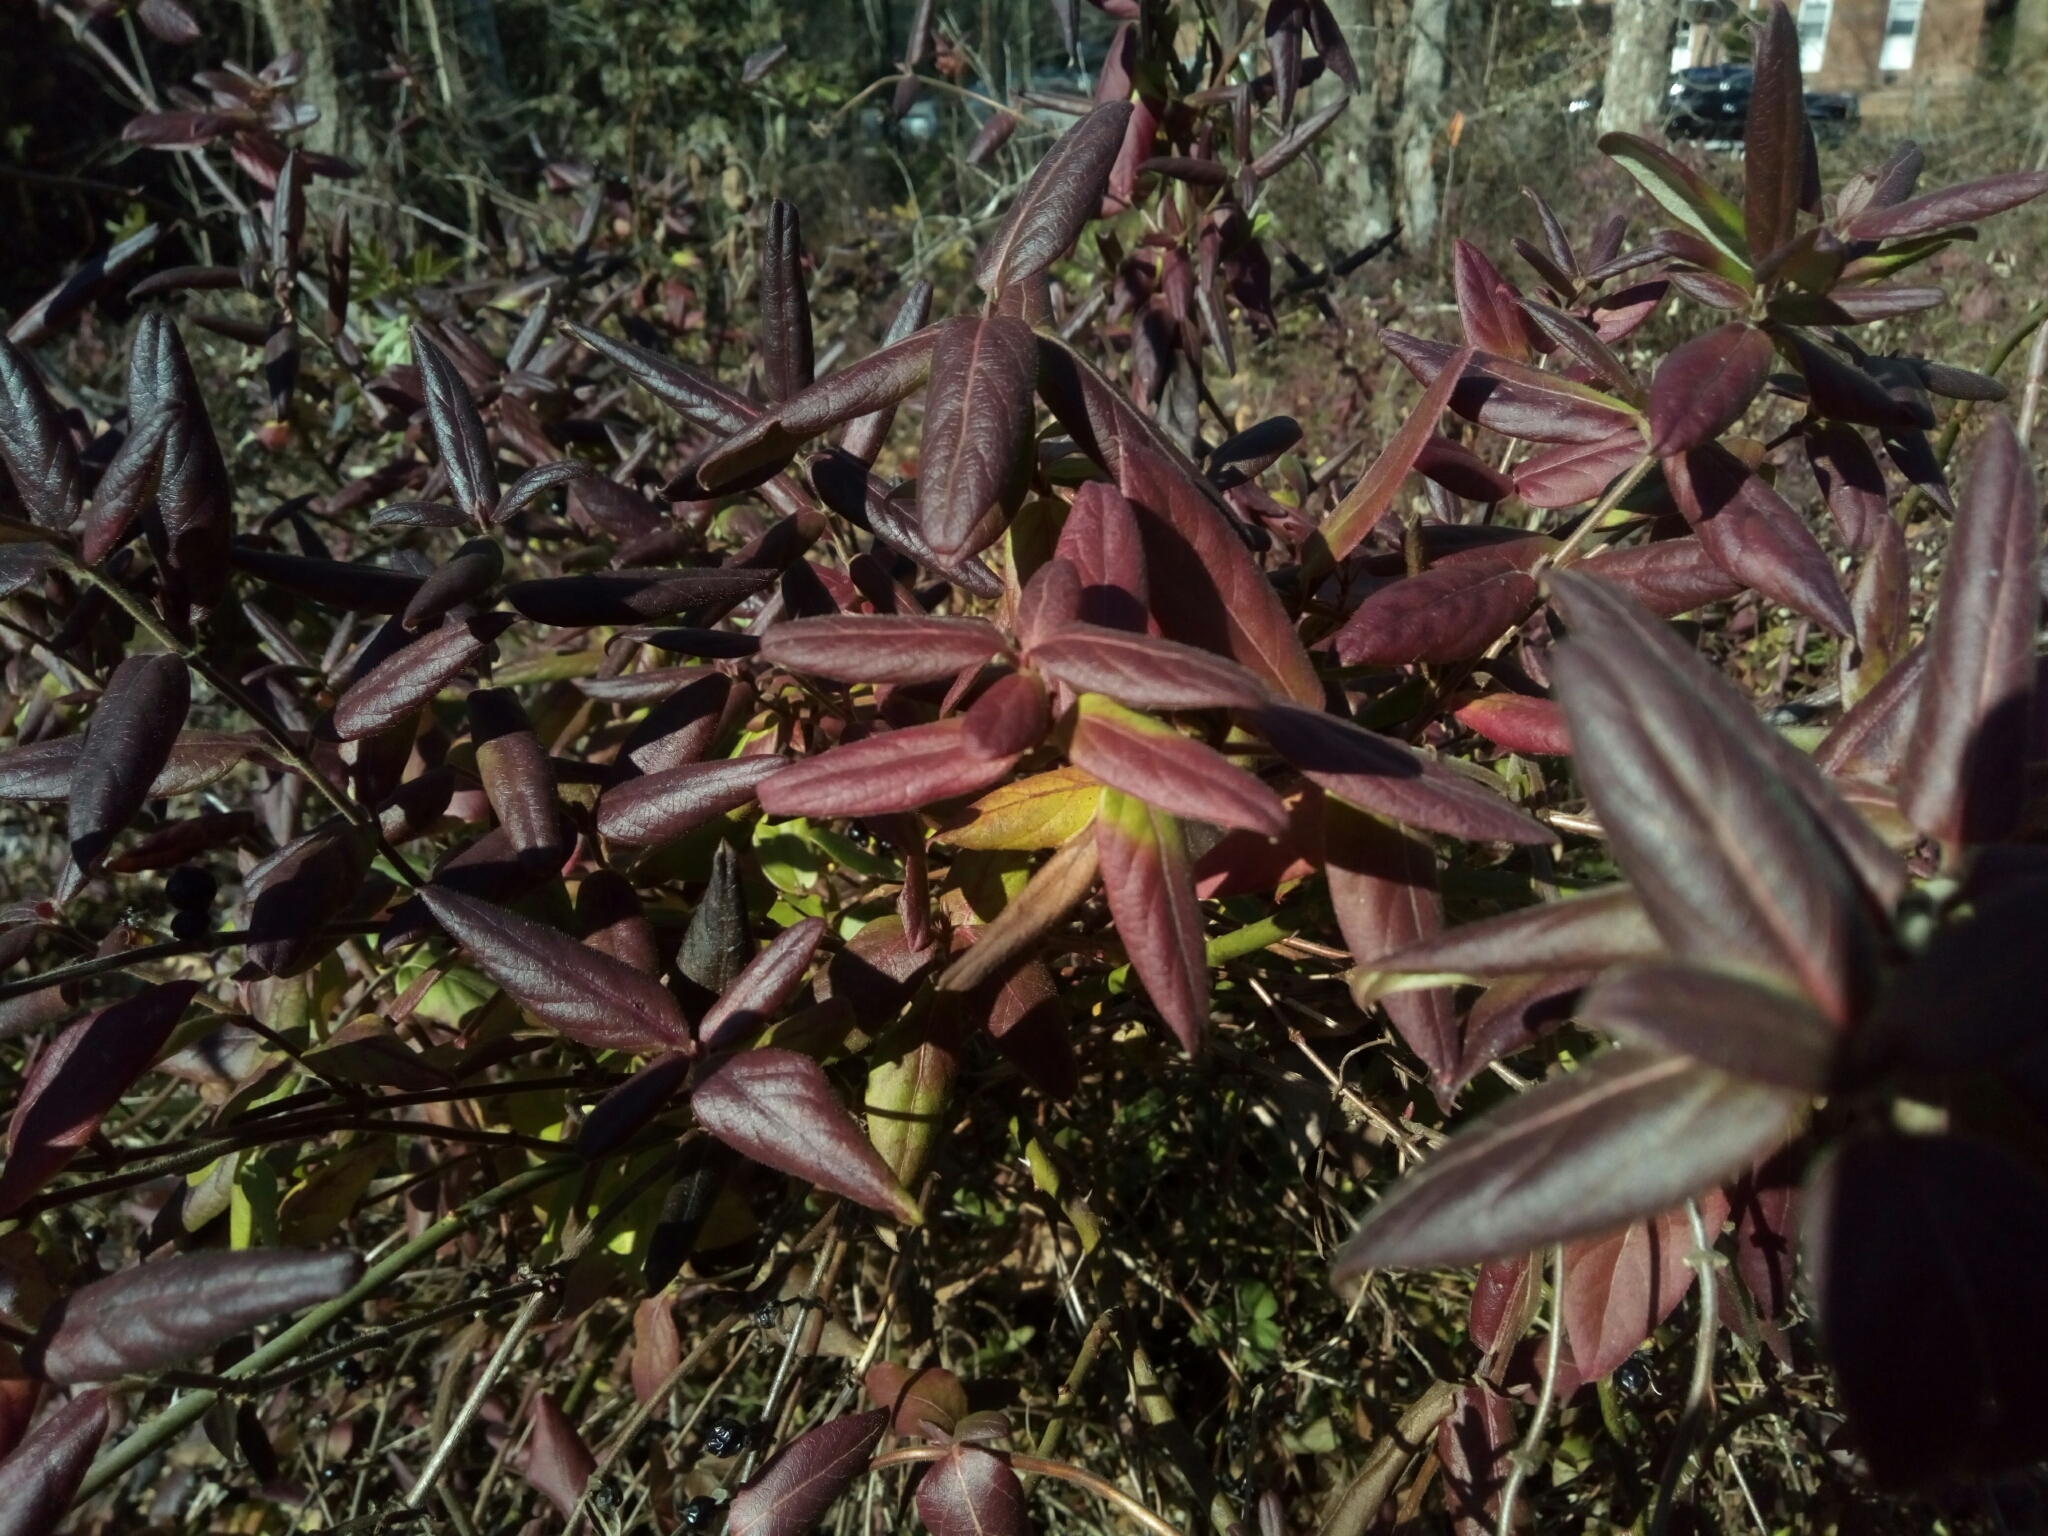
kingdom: Plantae
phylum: Tracheophyta
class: Magnoliopsida
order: Dipsacales
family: Caprifoliaceae
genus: Lonicera
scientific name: Lonicera japonica
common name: Japanese honeysuckle
